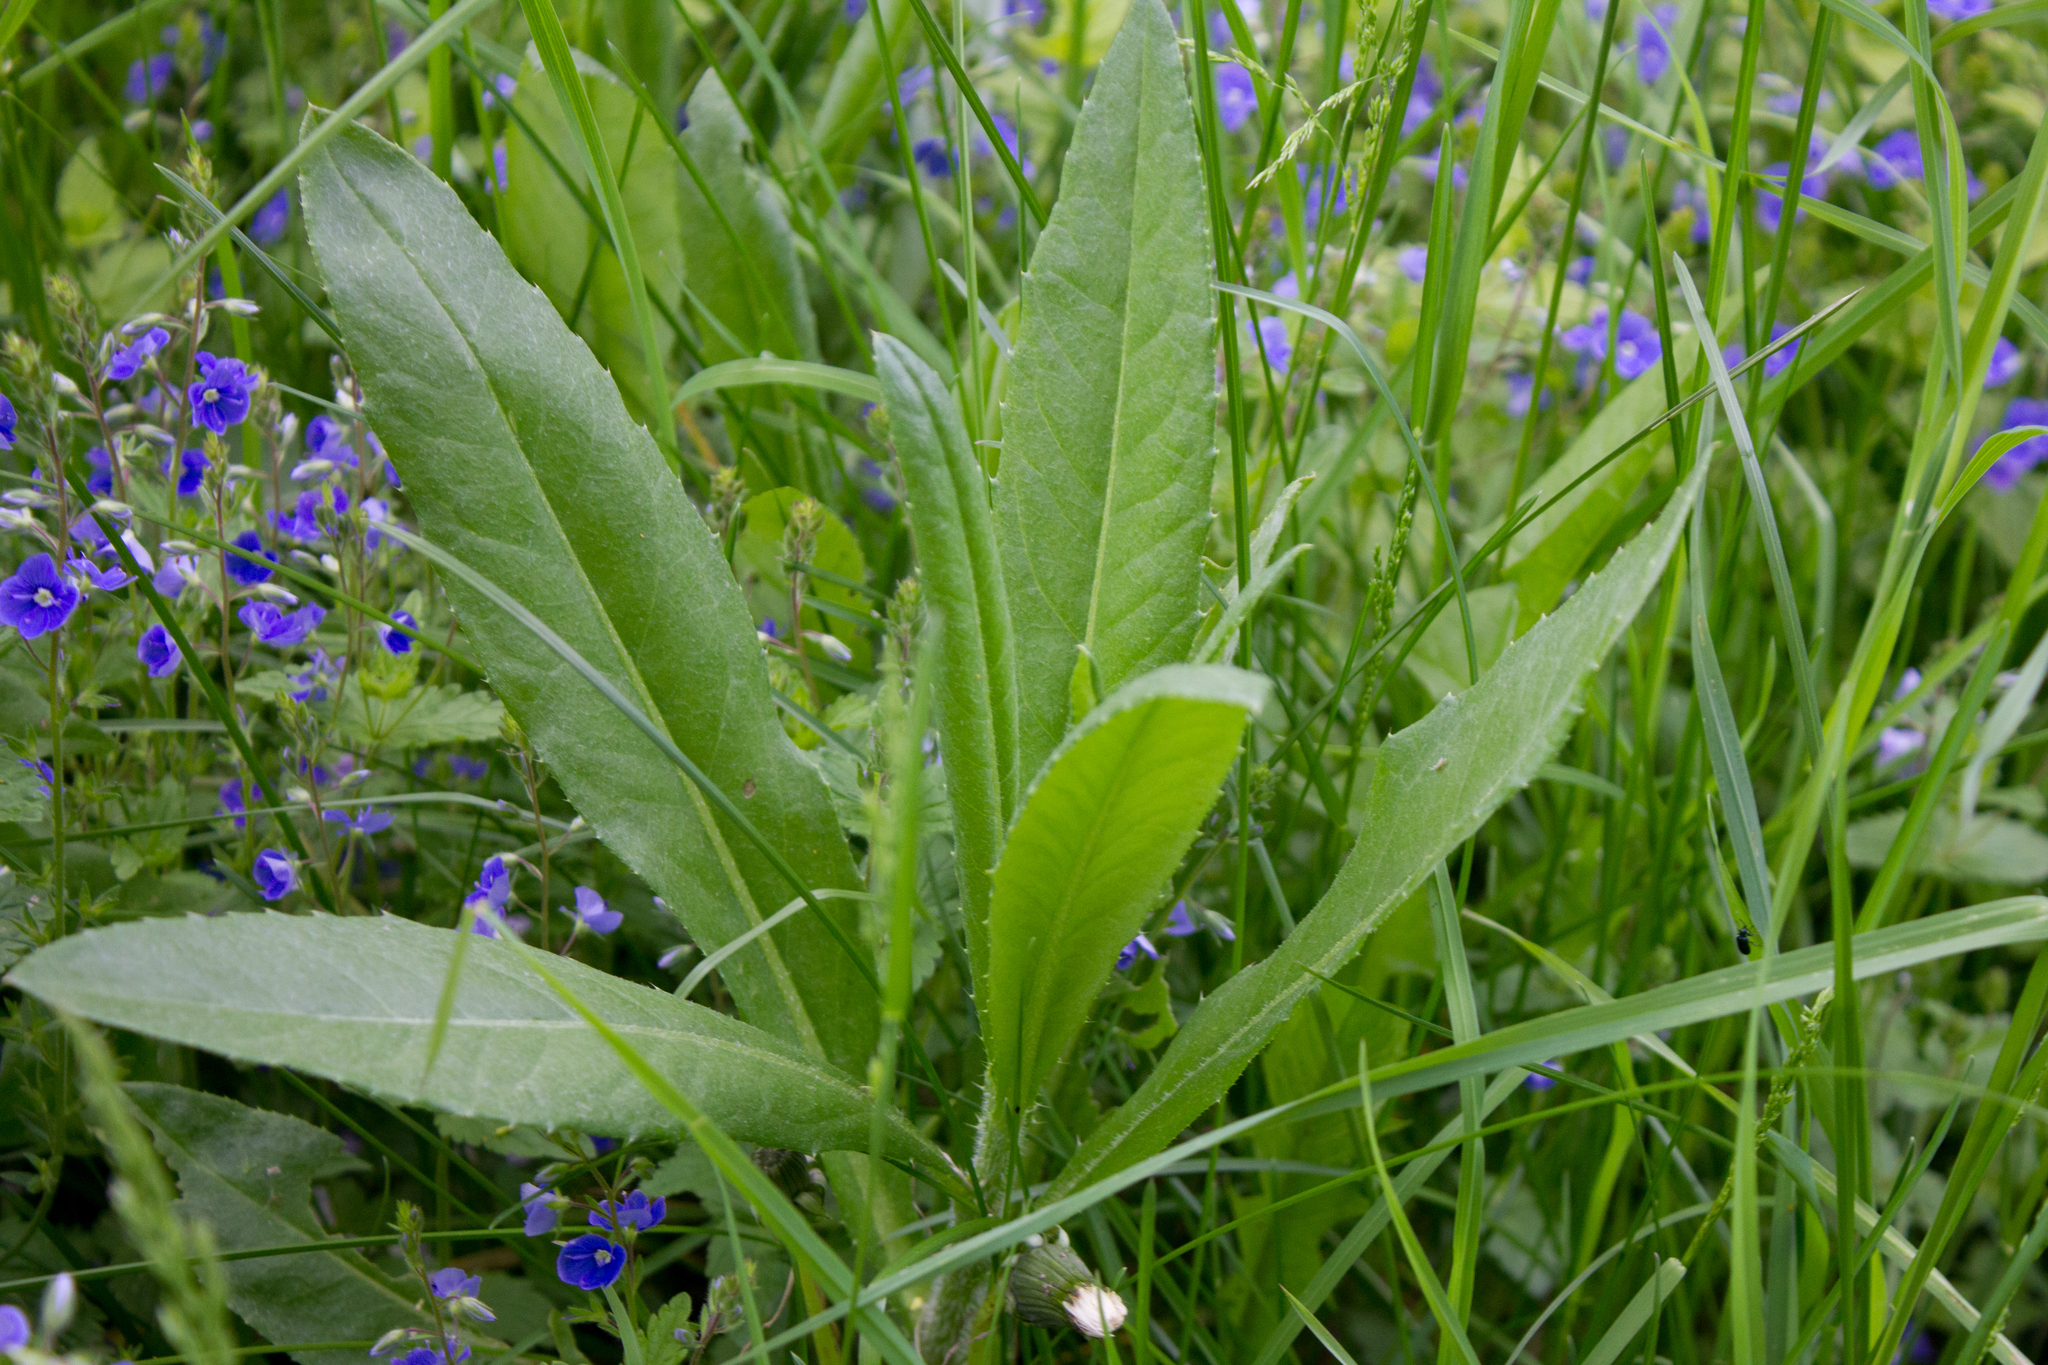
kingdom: Plantae
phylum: Tracheophyta
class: Magnoliopsida
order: Asterales
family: Asteraceae
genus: Cirsium
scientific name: Cirsium arvense
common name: Creeping thistle
